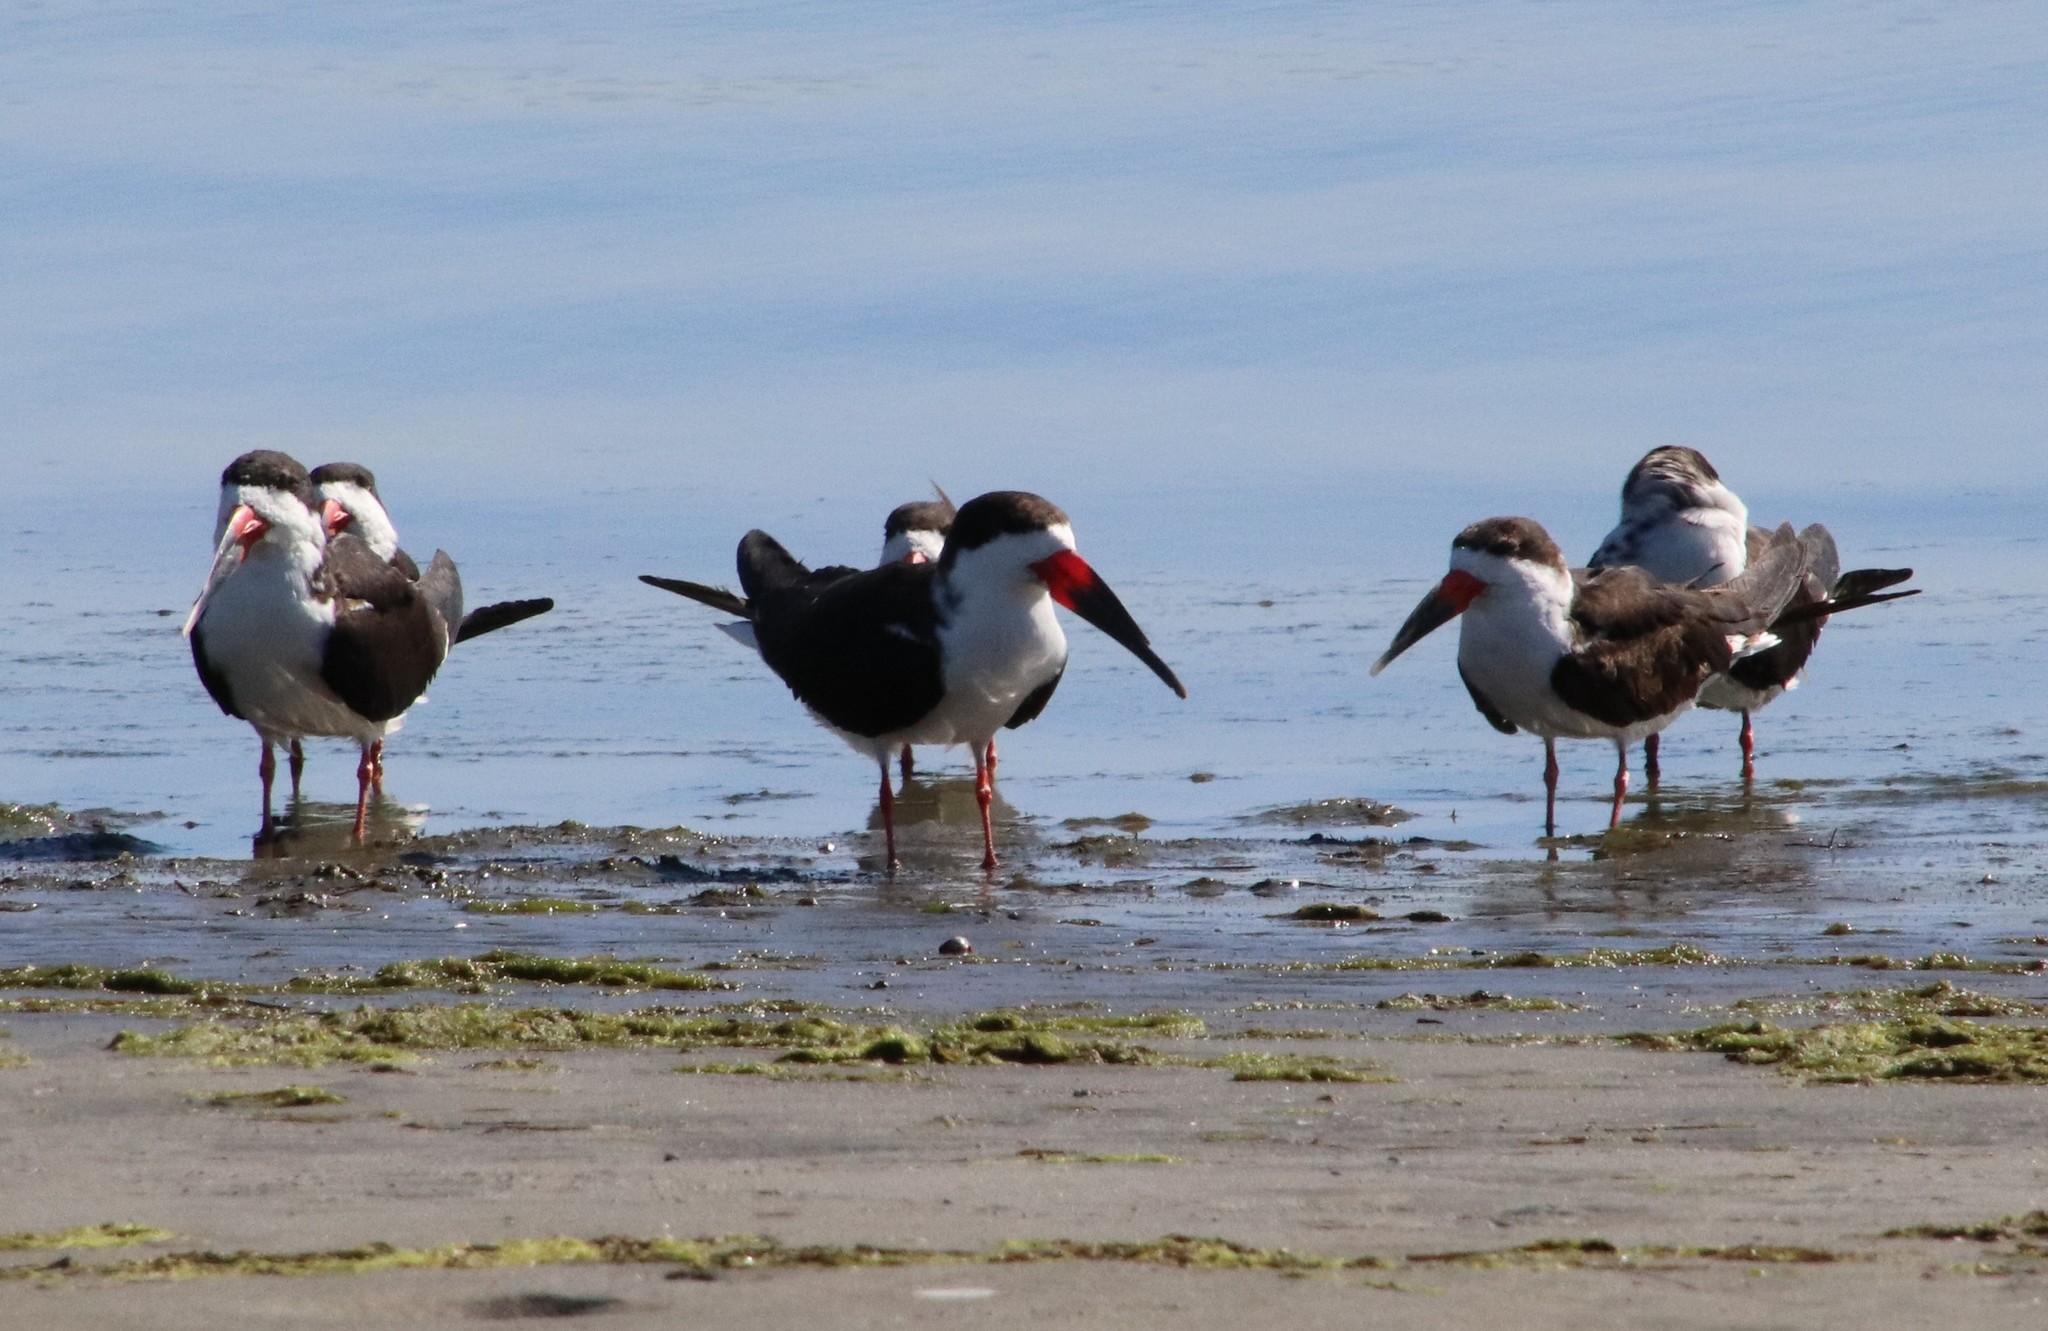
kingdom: Animalia
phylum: Chordata
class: Aves
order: Charadriiformes
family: Laridae
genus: Rynchops
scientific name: Rynchops niger
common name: Black skimmer
